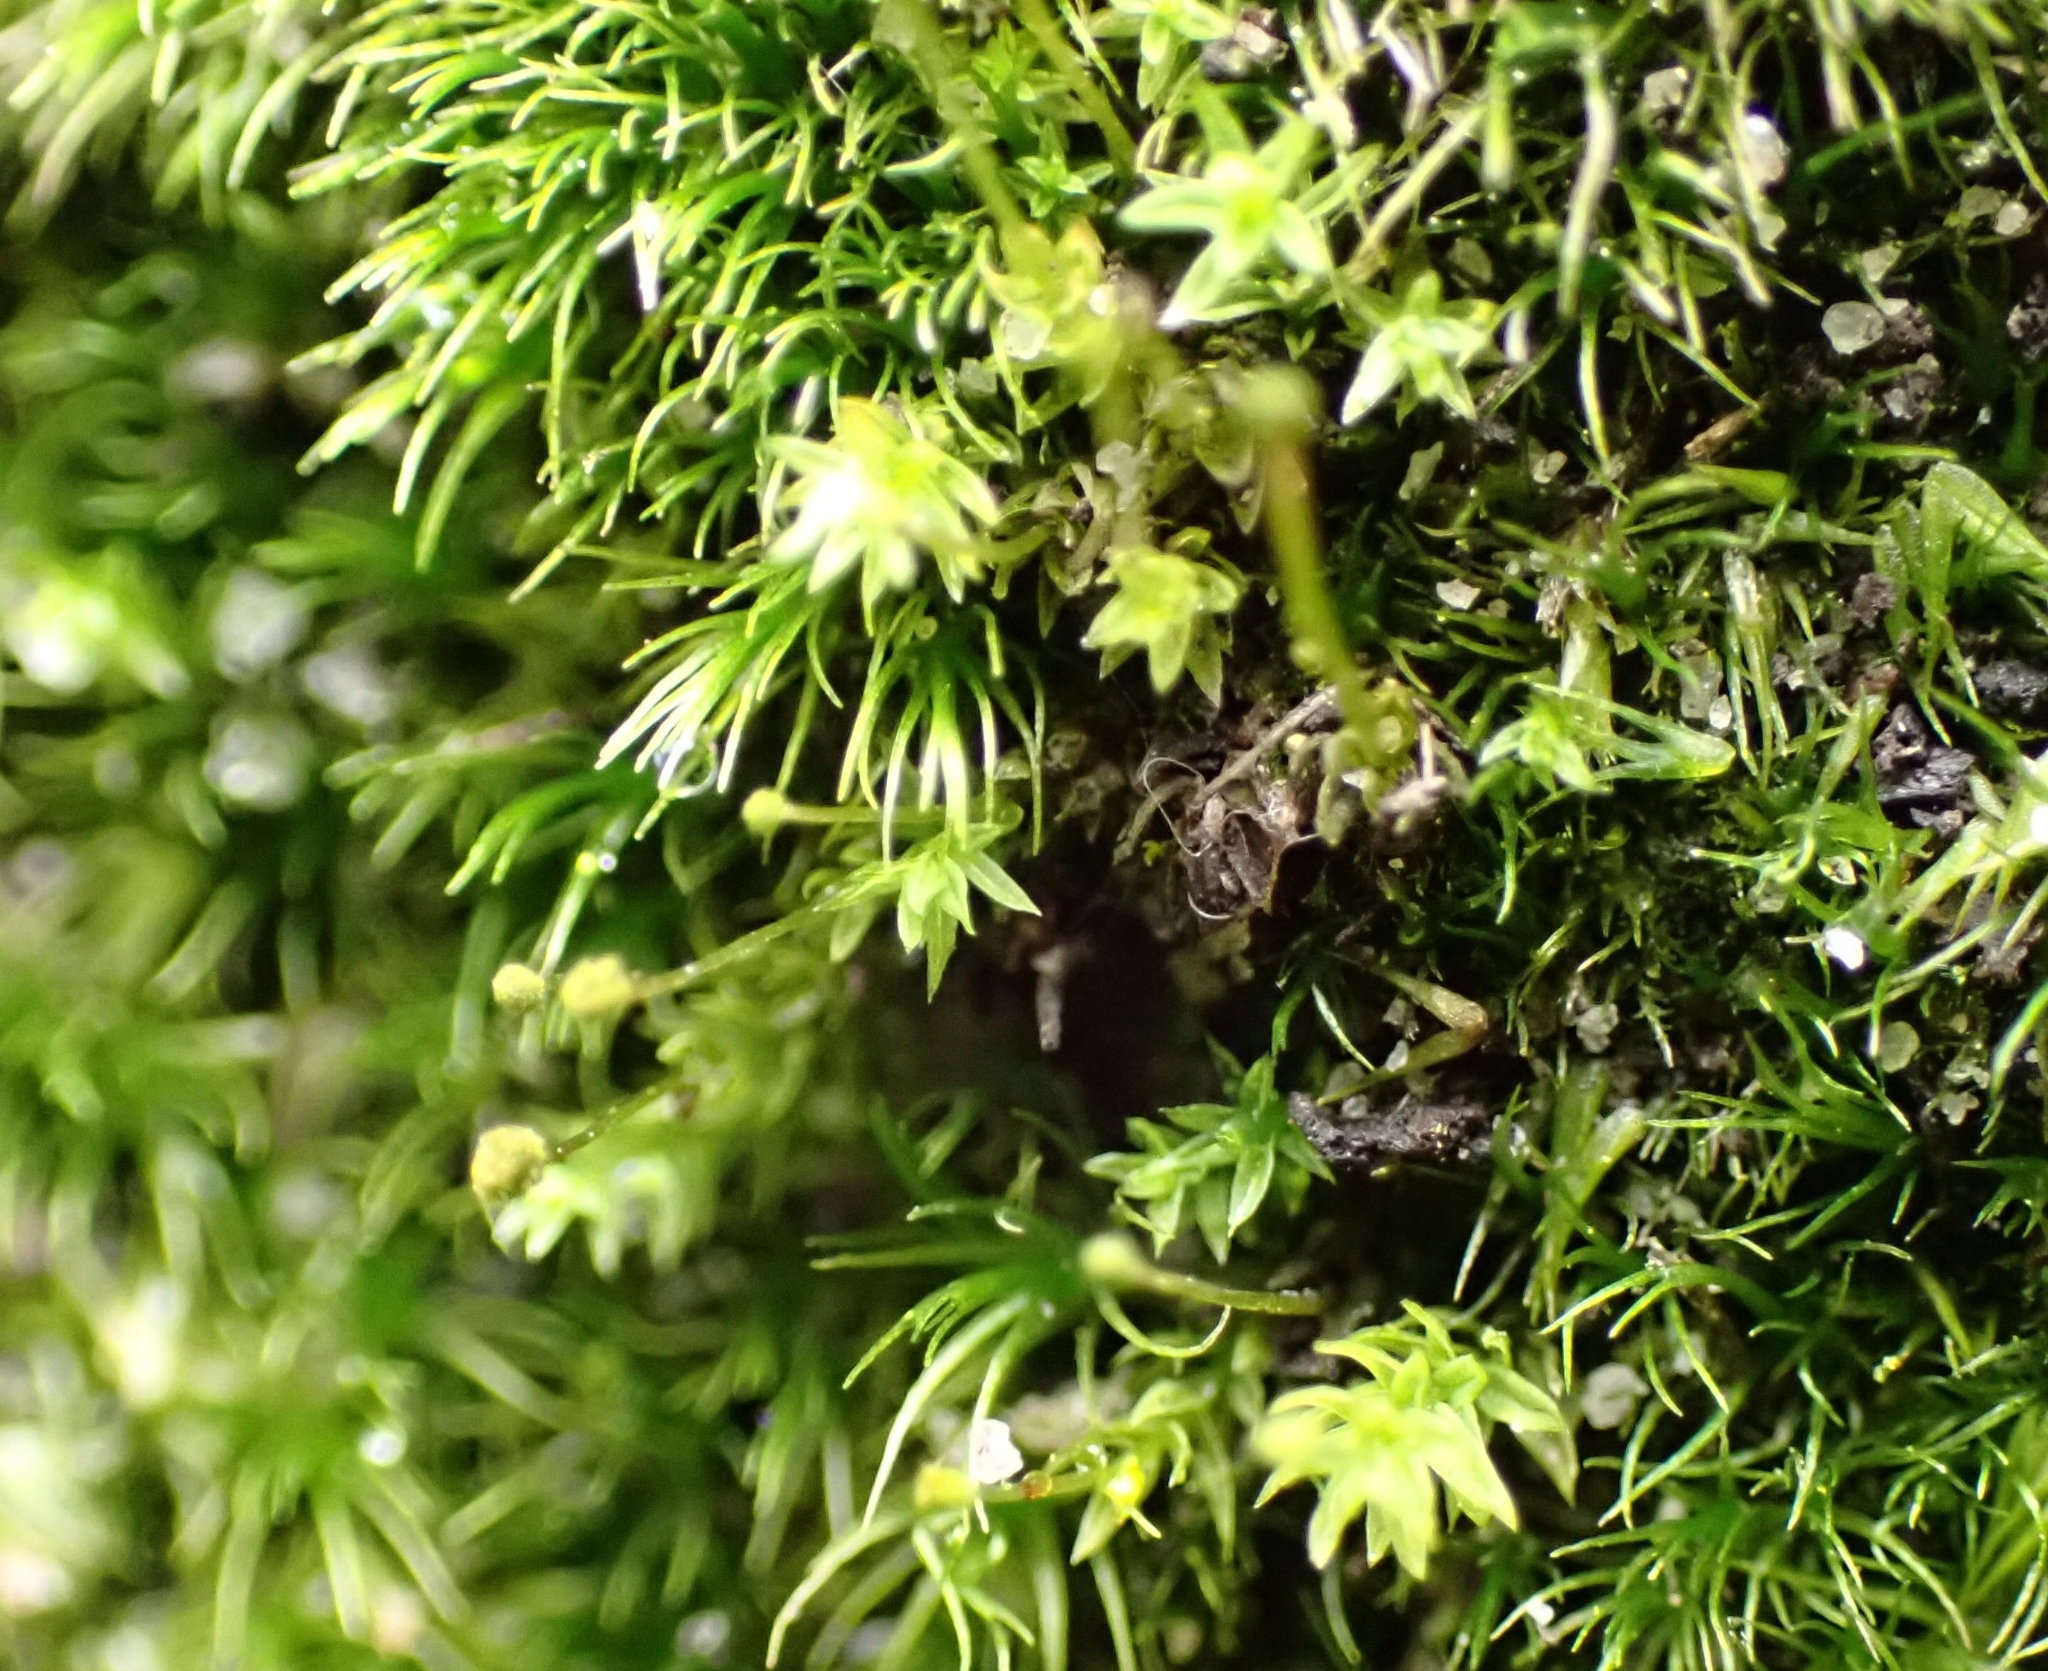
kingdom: Plantae
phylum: Bryophyta
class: Bryopsida
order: Aulacomniales
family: Aulacomniaceae
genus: Aulacomnium
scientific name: Aulacomnium androgynum
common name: Little groove moss
